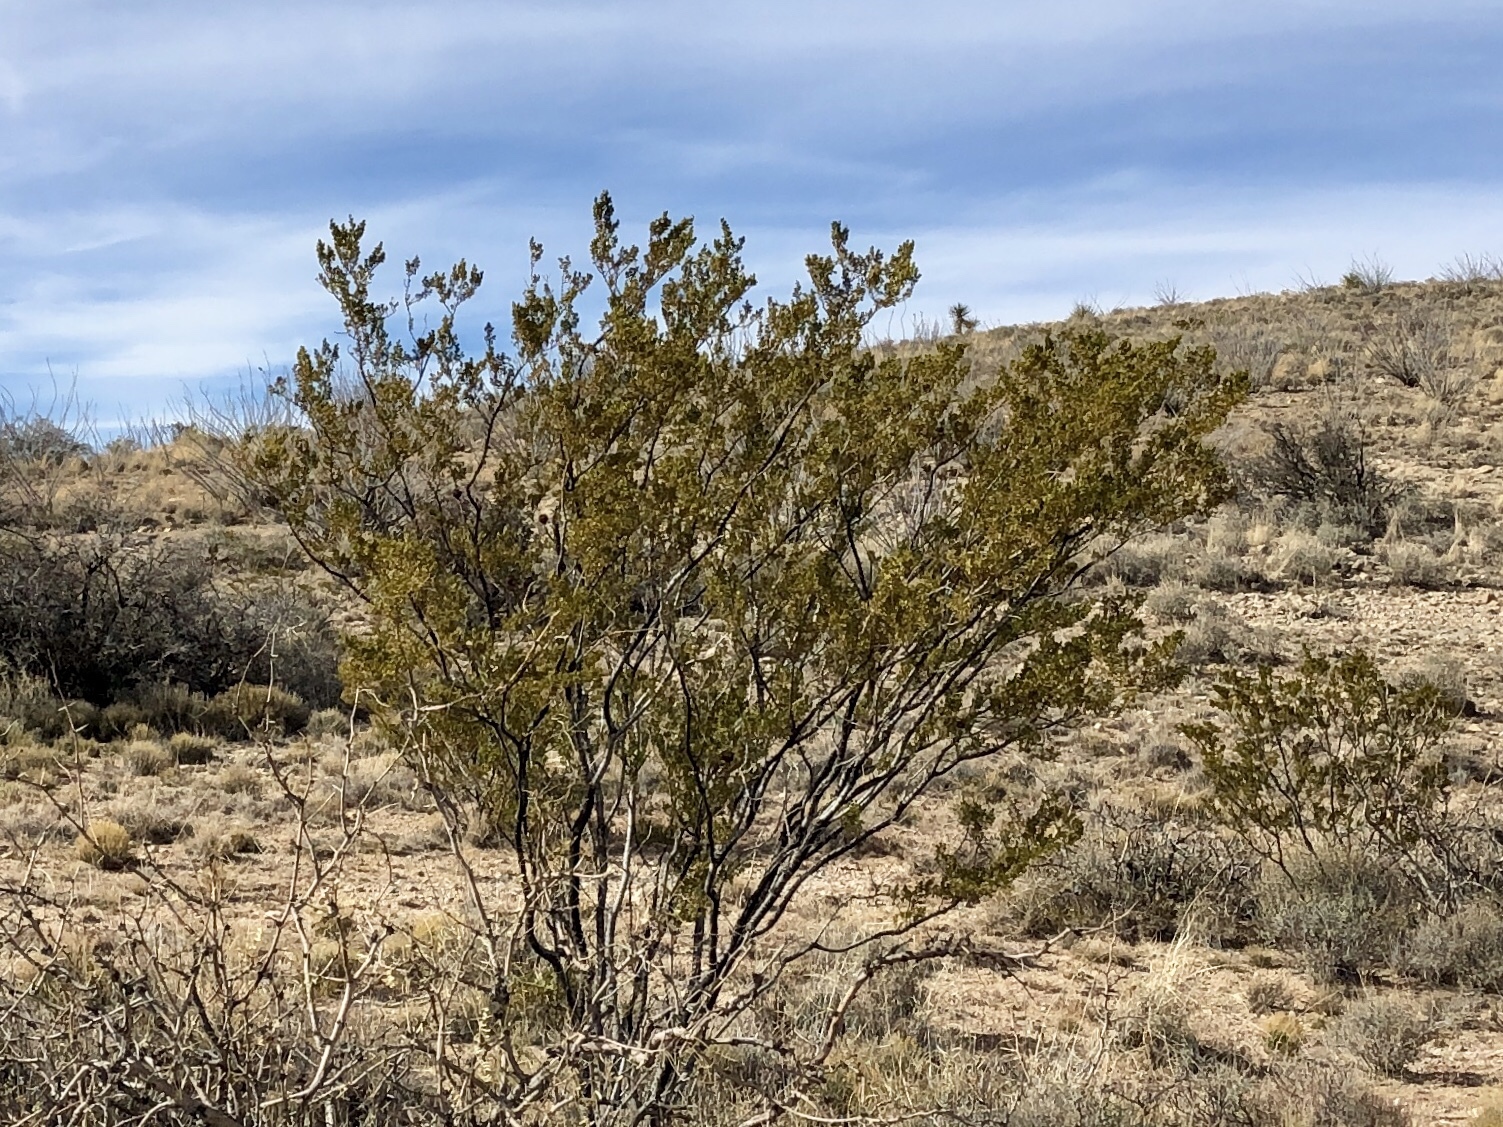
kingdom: Plantae
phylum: Tracheophyta
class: Magnoliopsida
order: Zygophyllales
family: Zygophyllaceae
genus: Larrea
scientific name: Larrea tridentata
